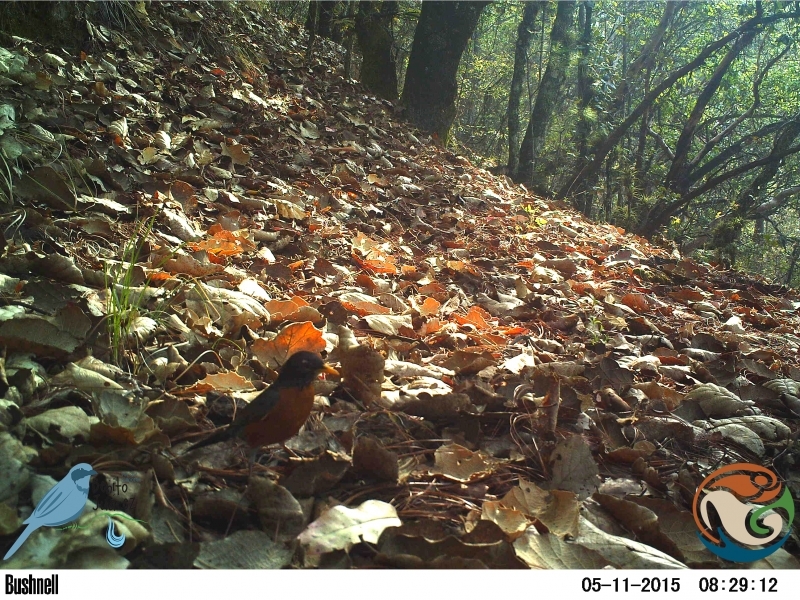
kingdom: Animalia
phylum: Chordata
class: Aves
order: Passeriformes
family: Turdidae
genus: Turdus
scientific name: Turdus migratorius
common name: American robin
